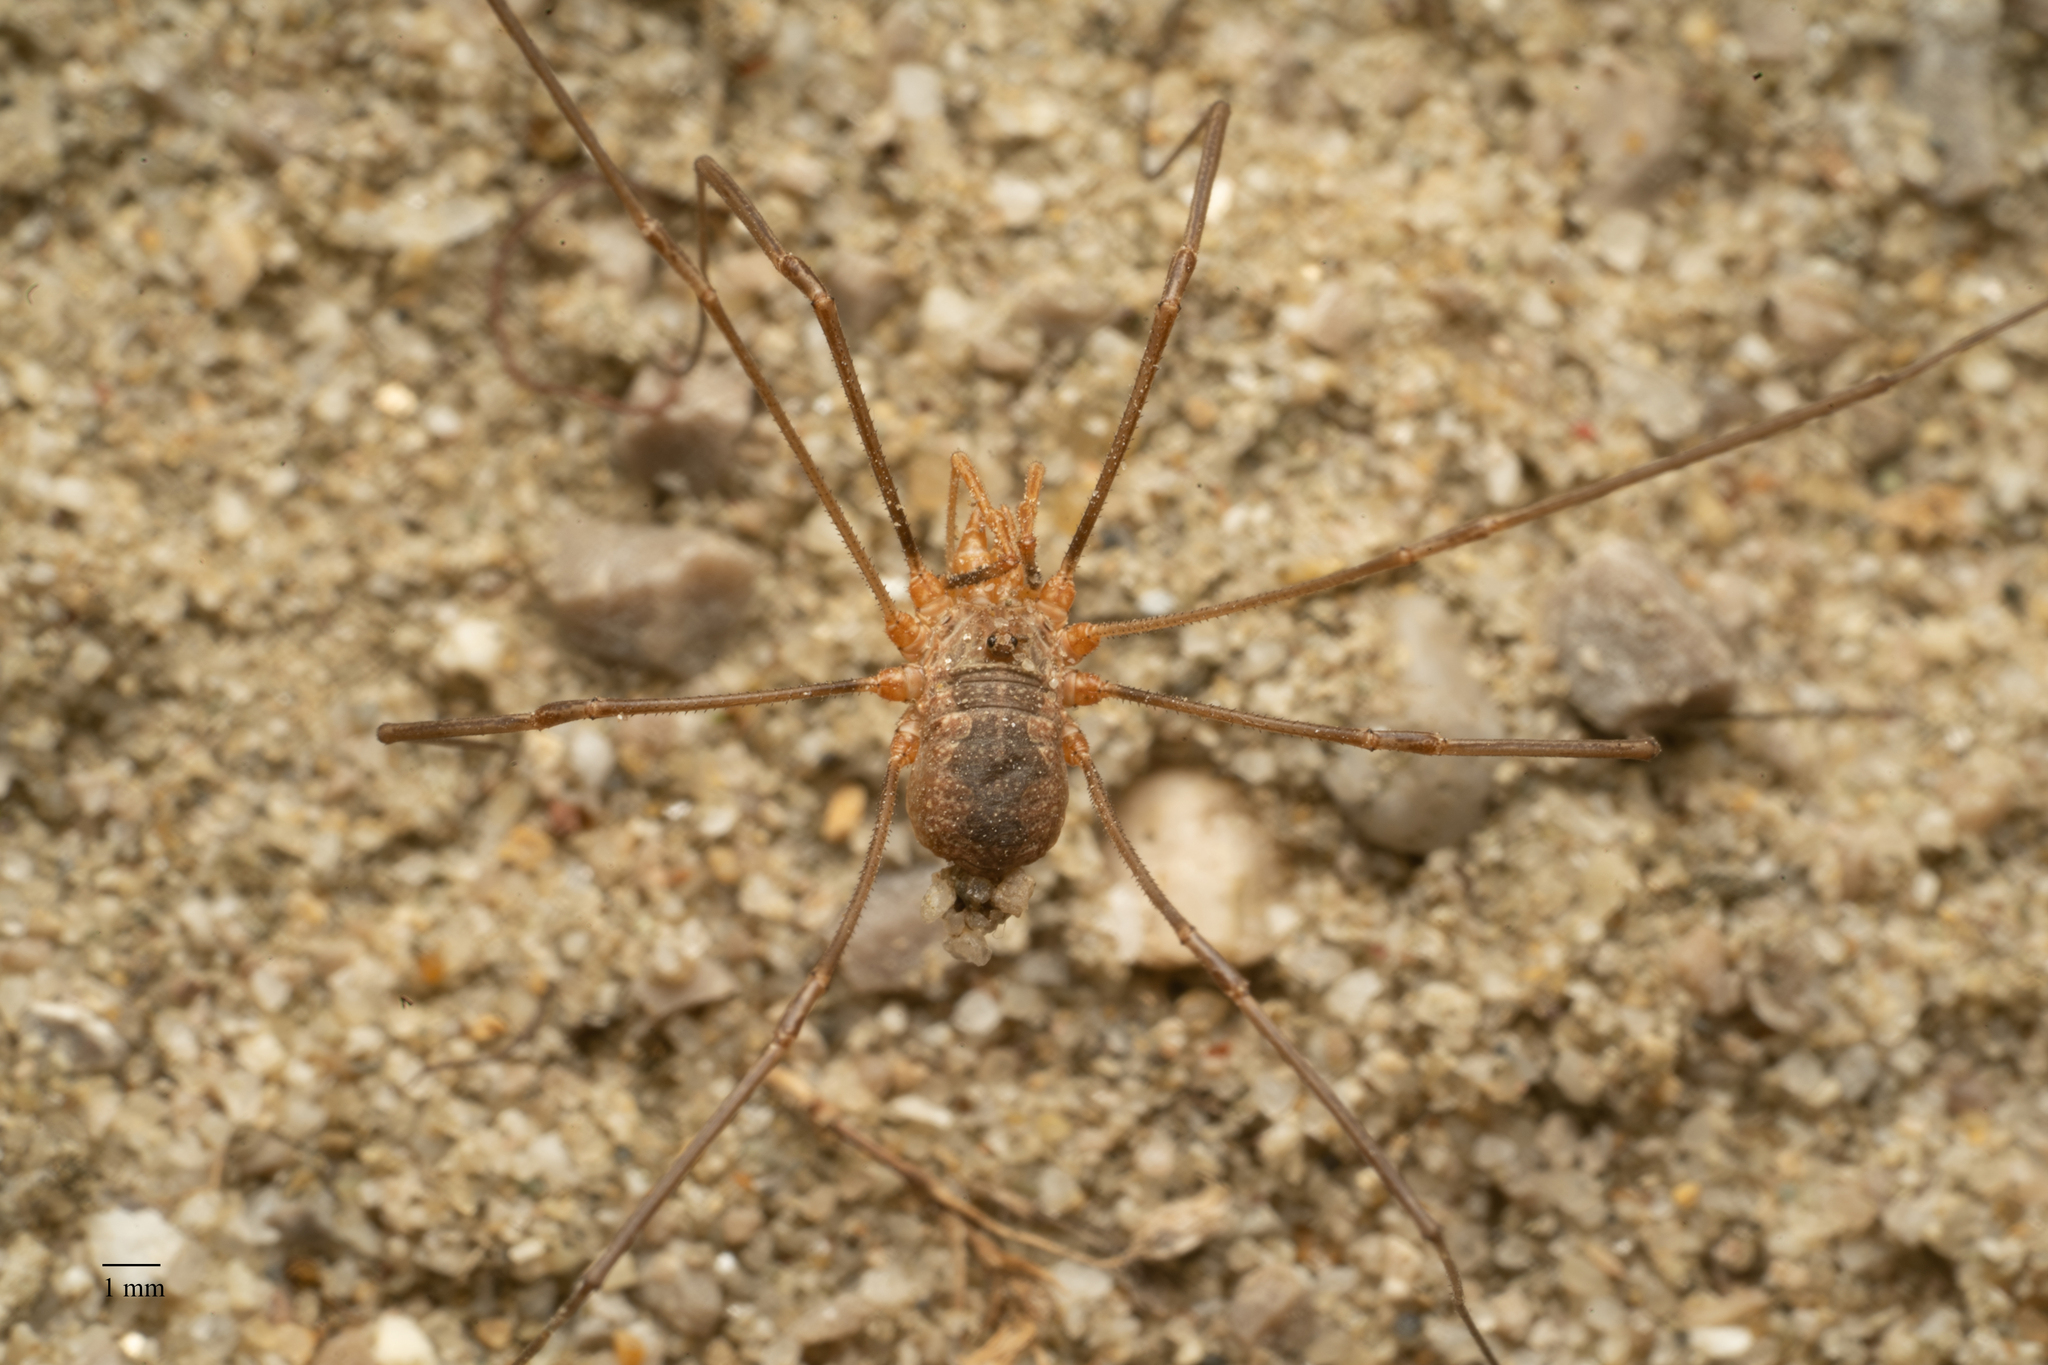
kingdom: Animalia
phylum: Arthropoda
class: Arachnida
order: Opiliones
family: Phalangiidae
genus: Phalangium
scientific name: Phalangium opilio
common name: Daddy longleg
